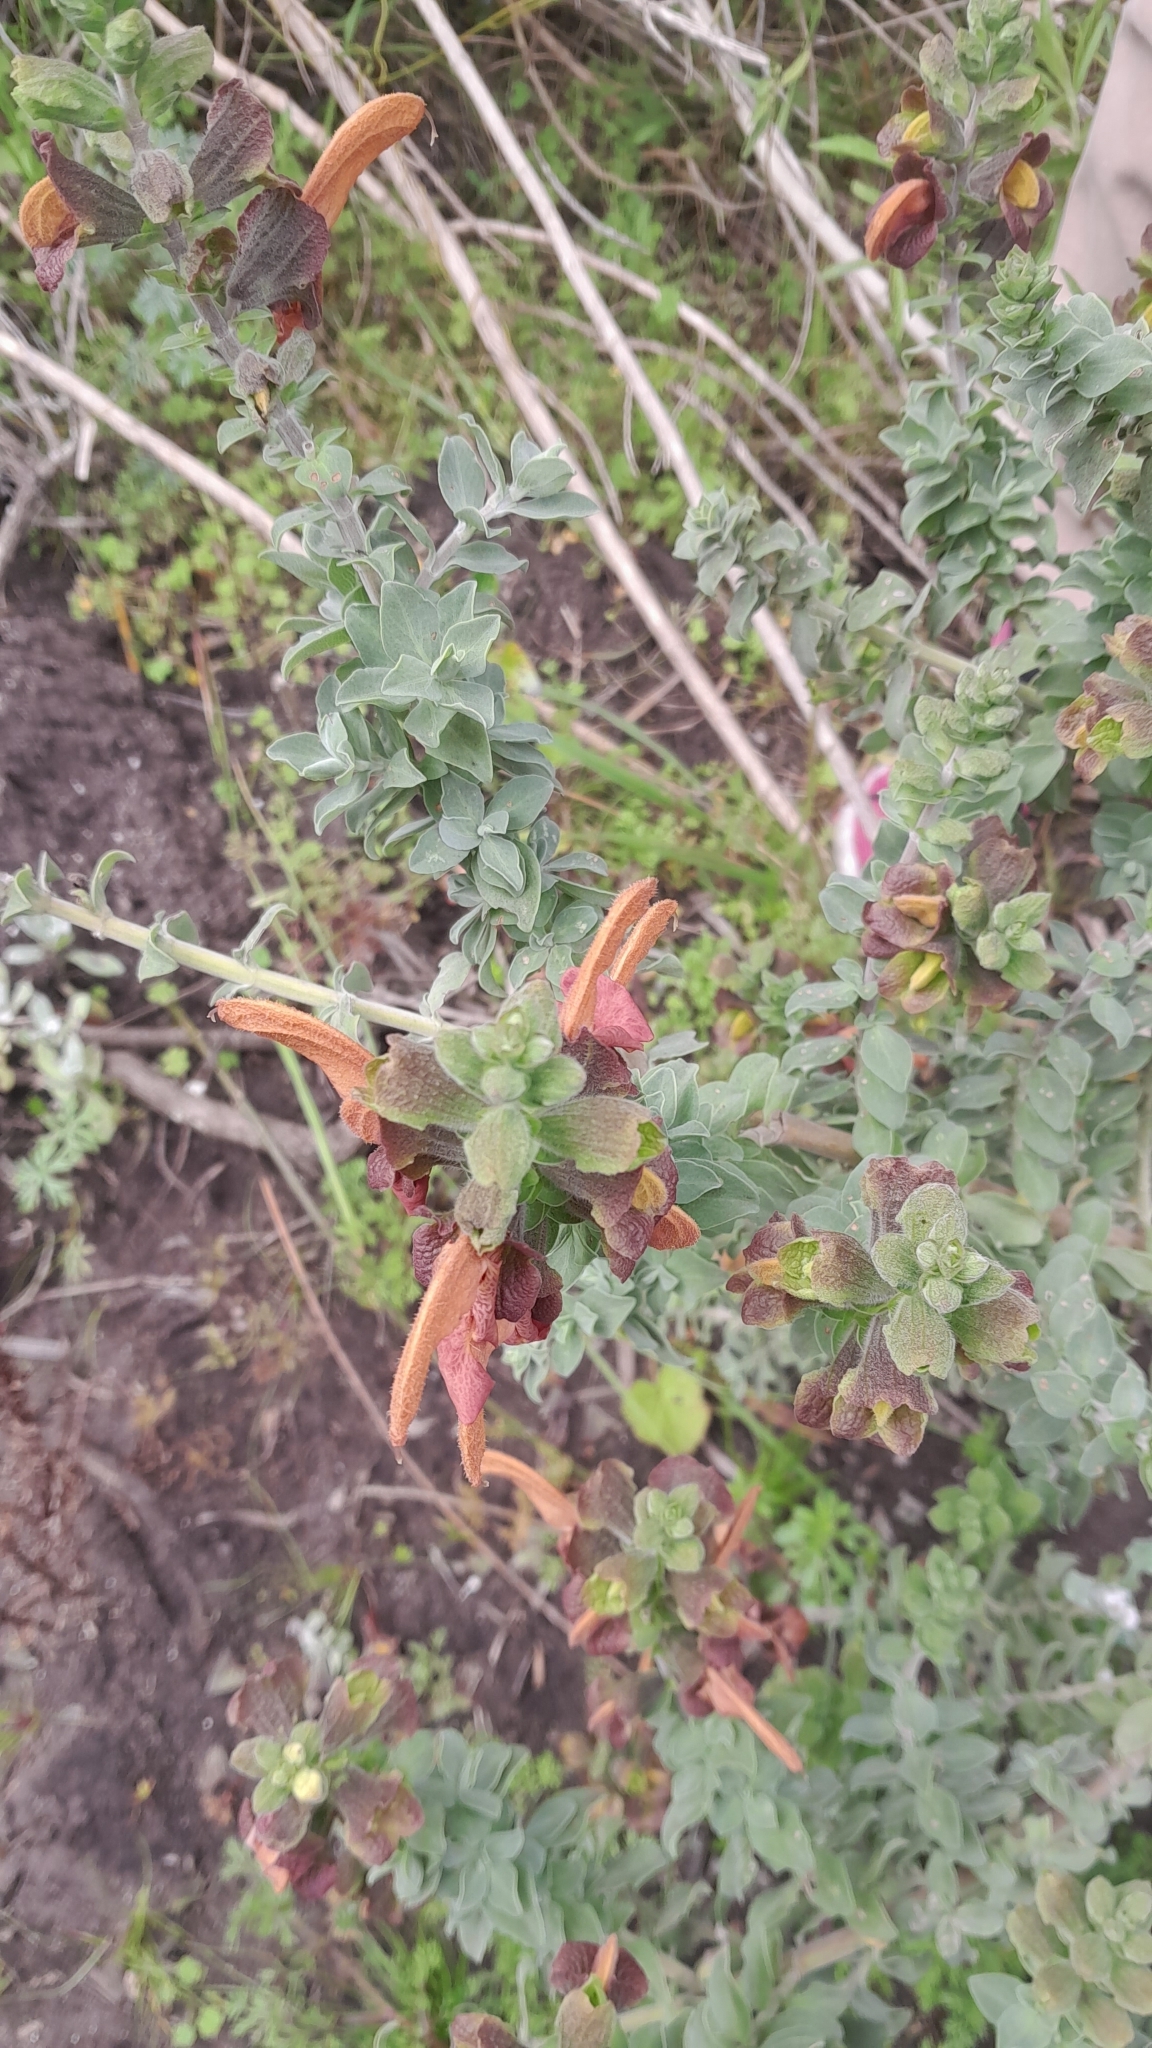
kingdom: Plantae
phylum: Tracheophyta
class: Magnoliopsida
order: Lamiales
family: Lamiaceae
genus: Salvia
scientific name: Salvia aurea
